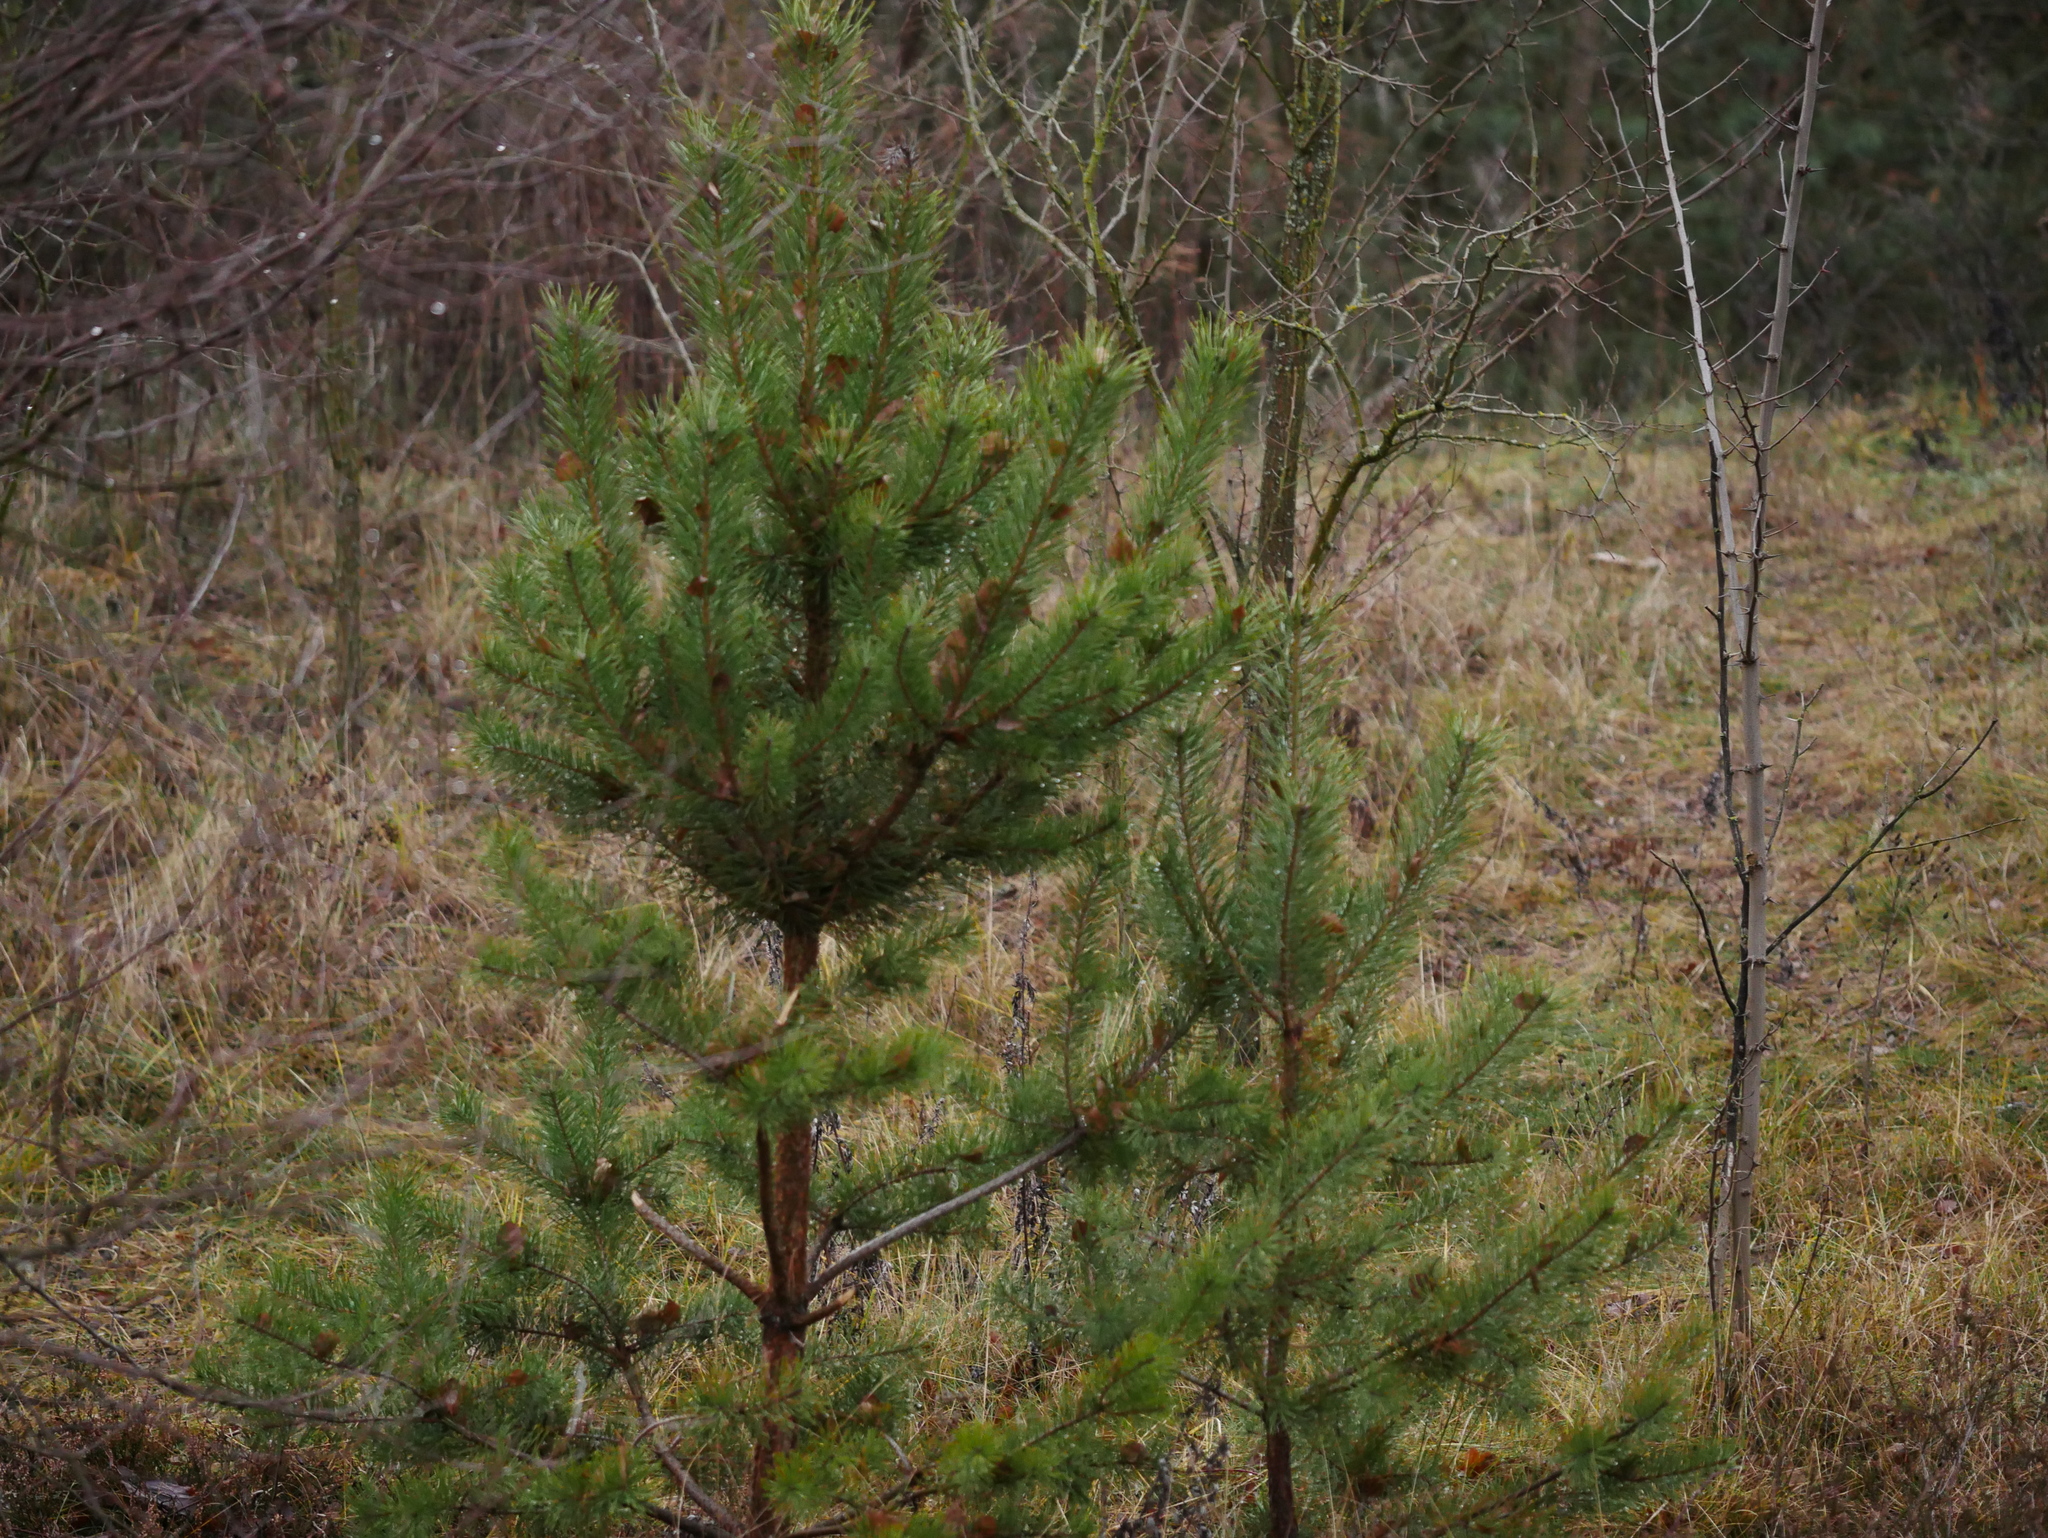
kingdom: Plantae
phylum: Tracheophyta
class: Pinopsida
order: Pinales
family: Pinaceae
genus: Pinus
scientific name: Pinus sylvestris
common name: Scots pine
